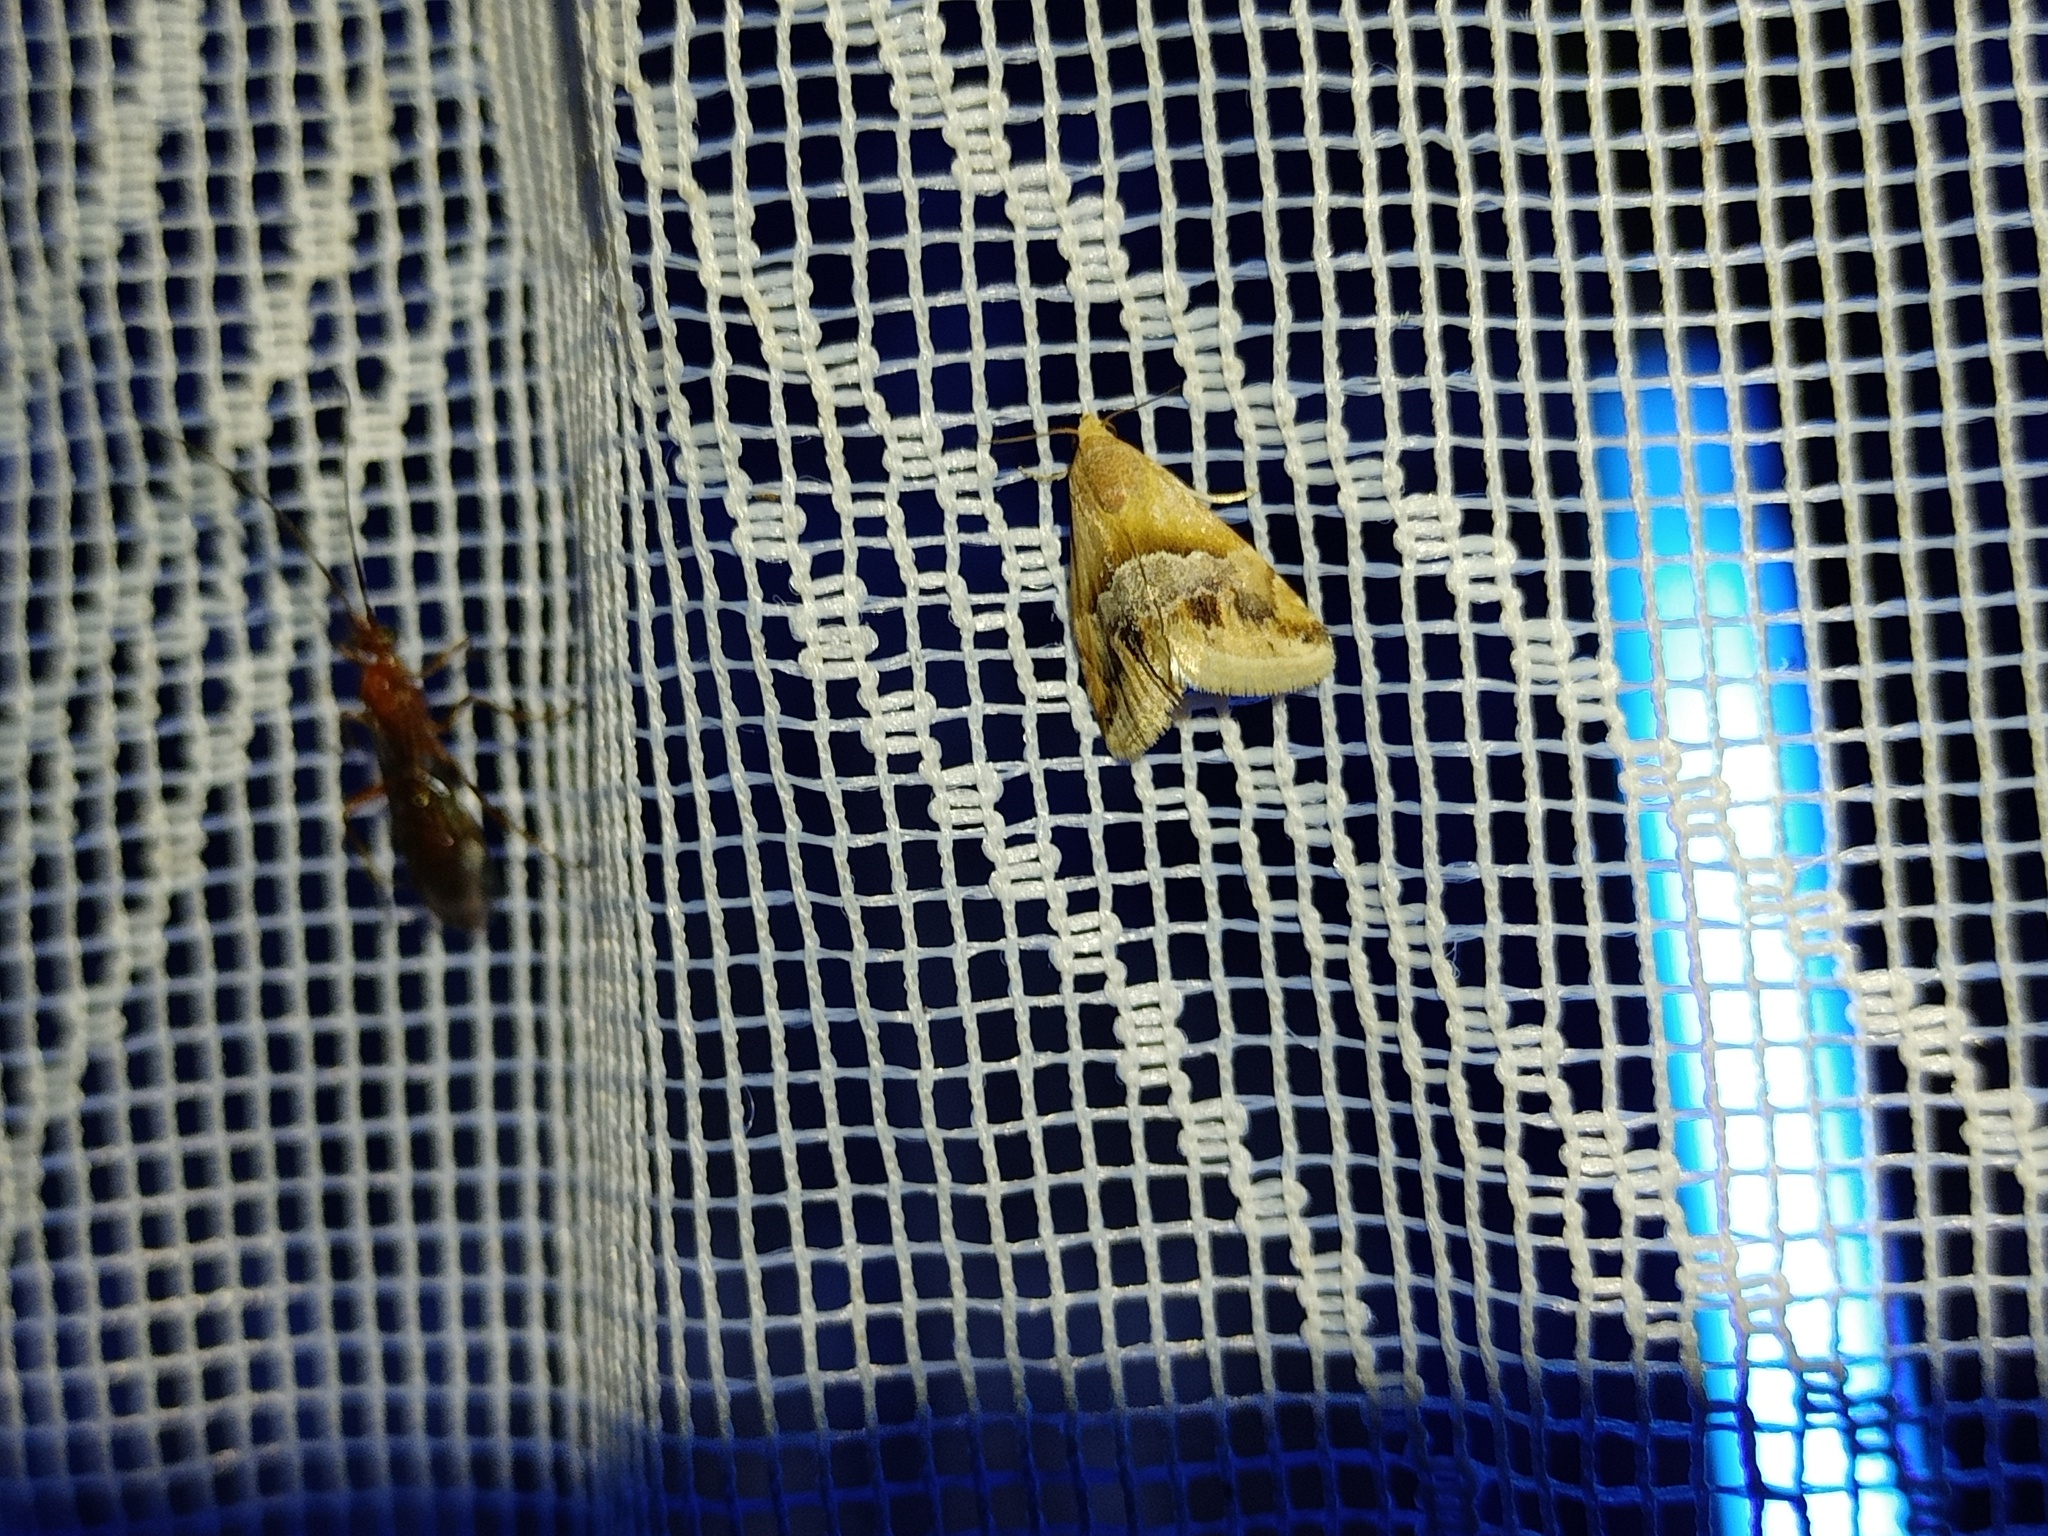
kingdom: Animalia
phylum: Arthropoda
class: Insecta
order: Lepidoptera
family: Noctuidae
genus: Eublemma
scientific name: Eublemma parva
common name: Small marbled
